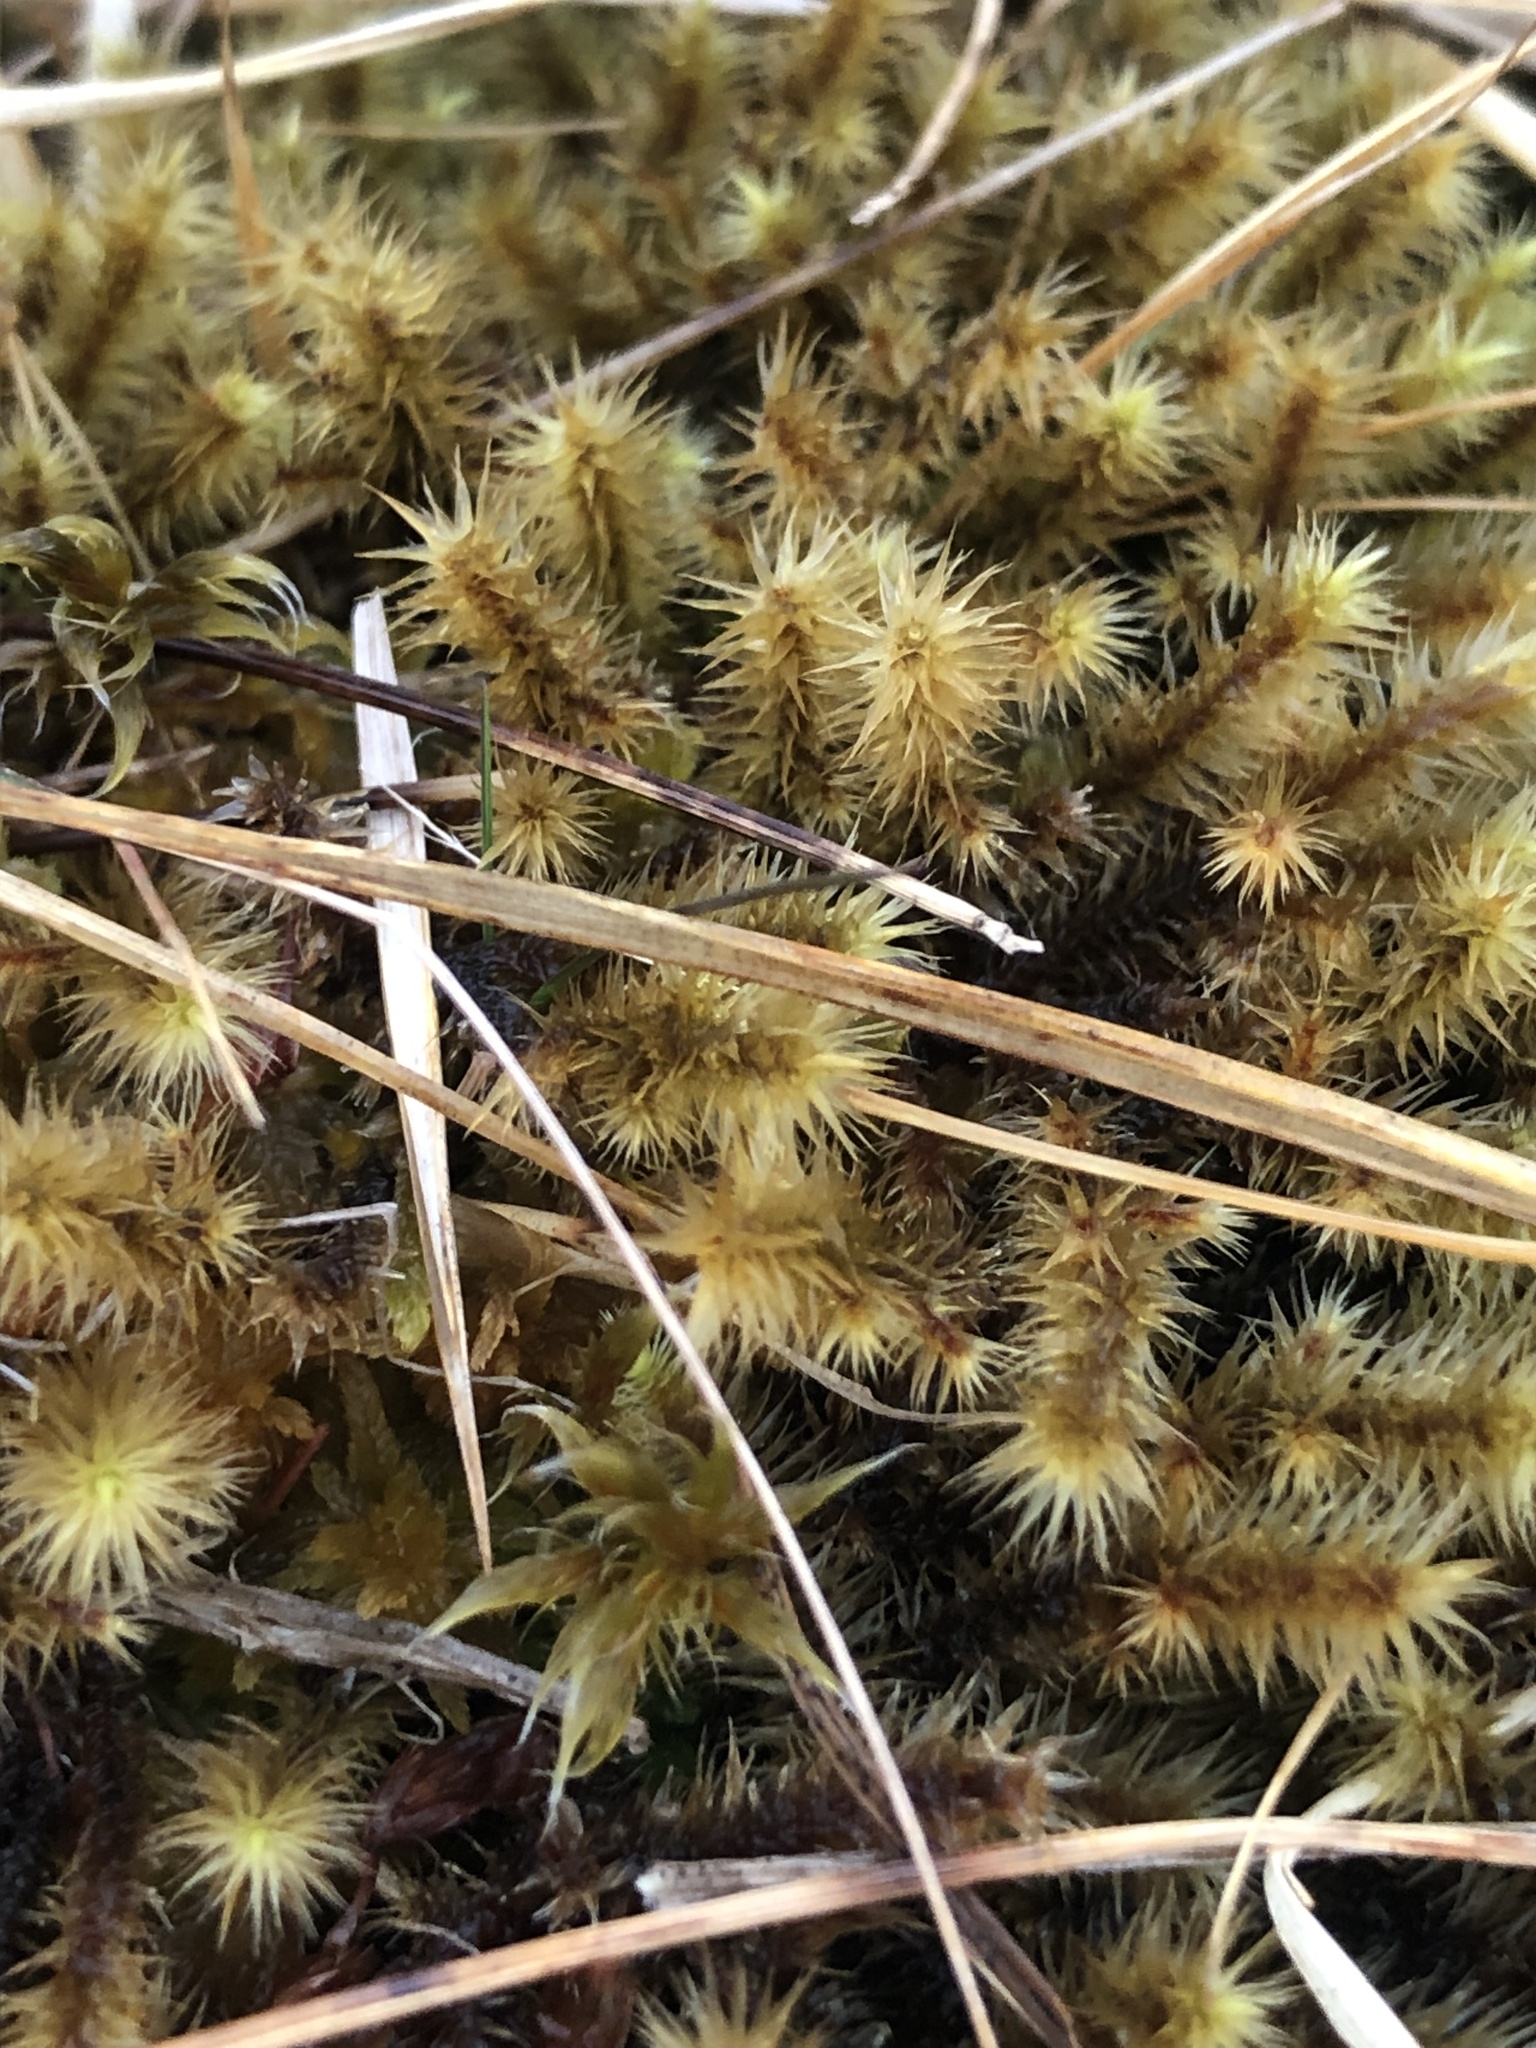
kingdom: Plantae
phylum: Bryophyta
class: Bryopsida
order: Bartramiales
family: Bartramiaceae
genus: Breutelia
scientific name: Breutelia chrysocoma
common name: Bottle-brush moss
